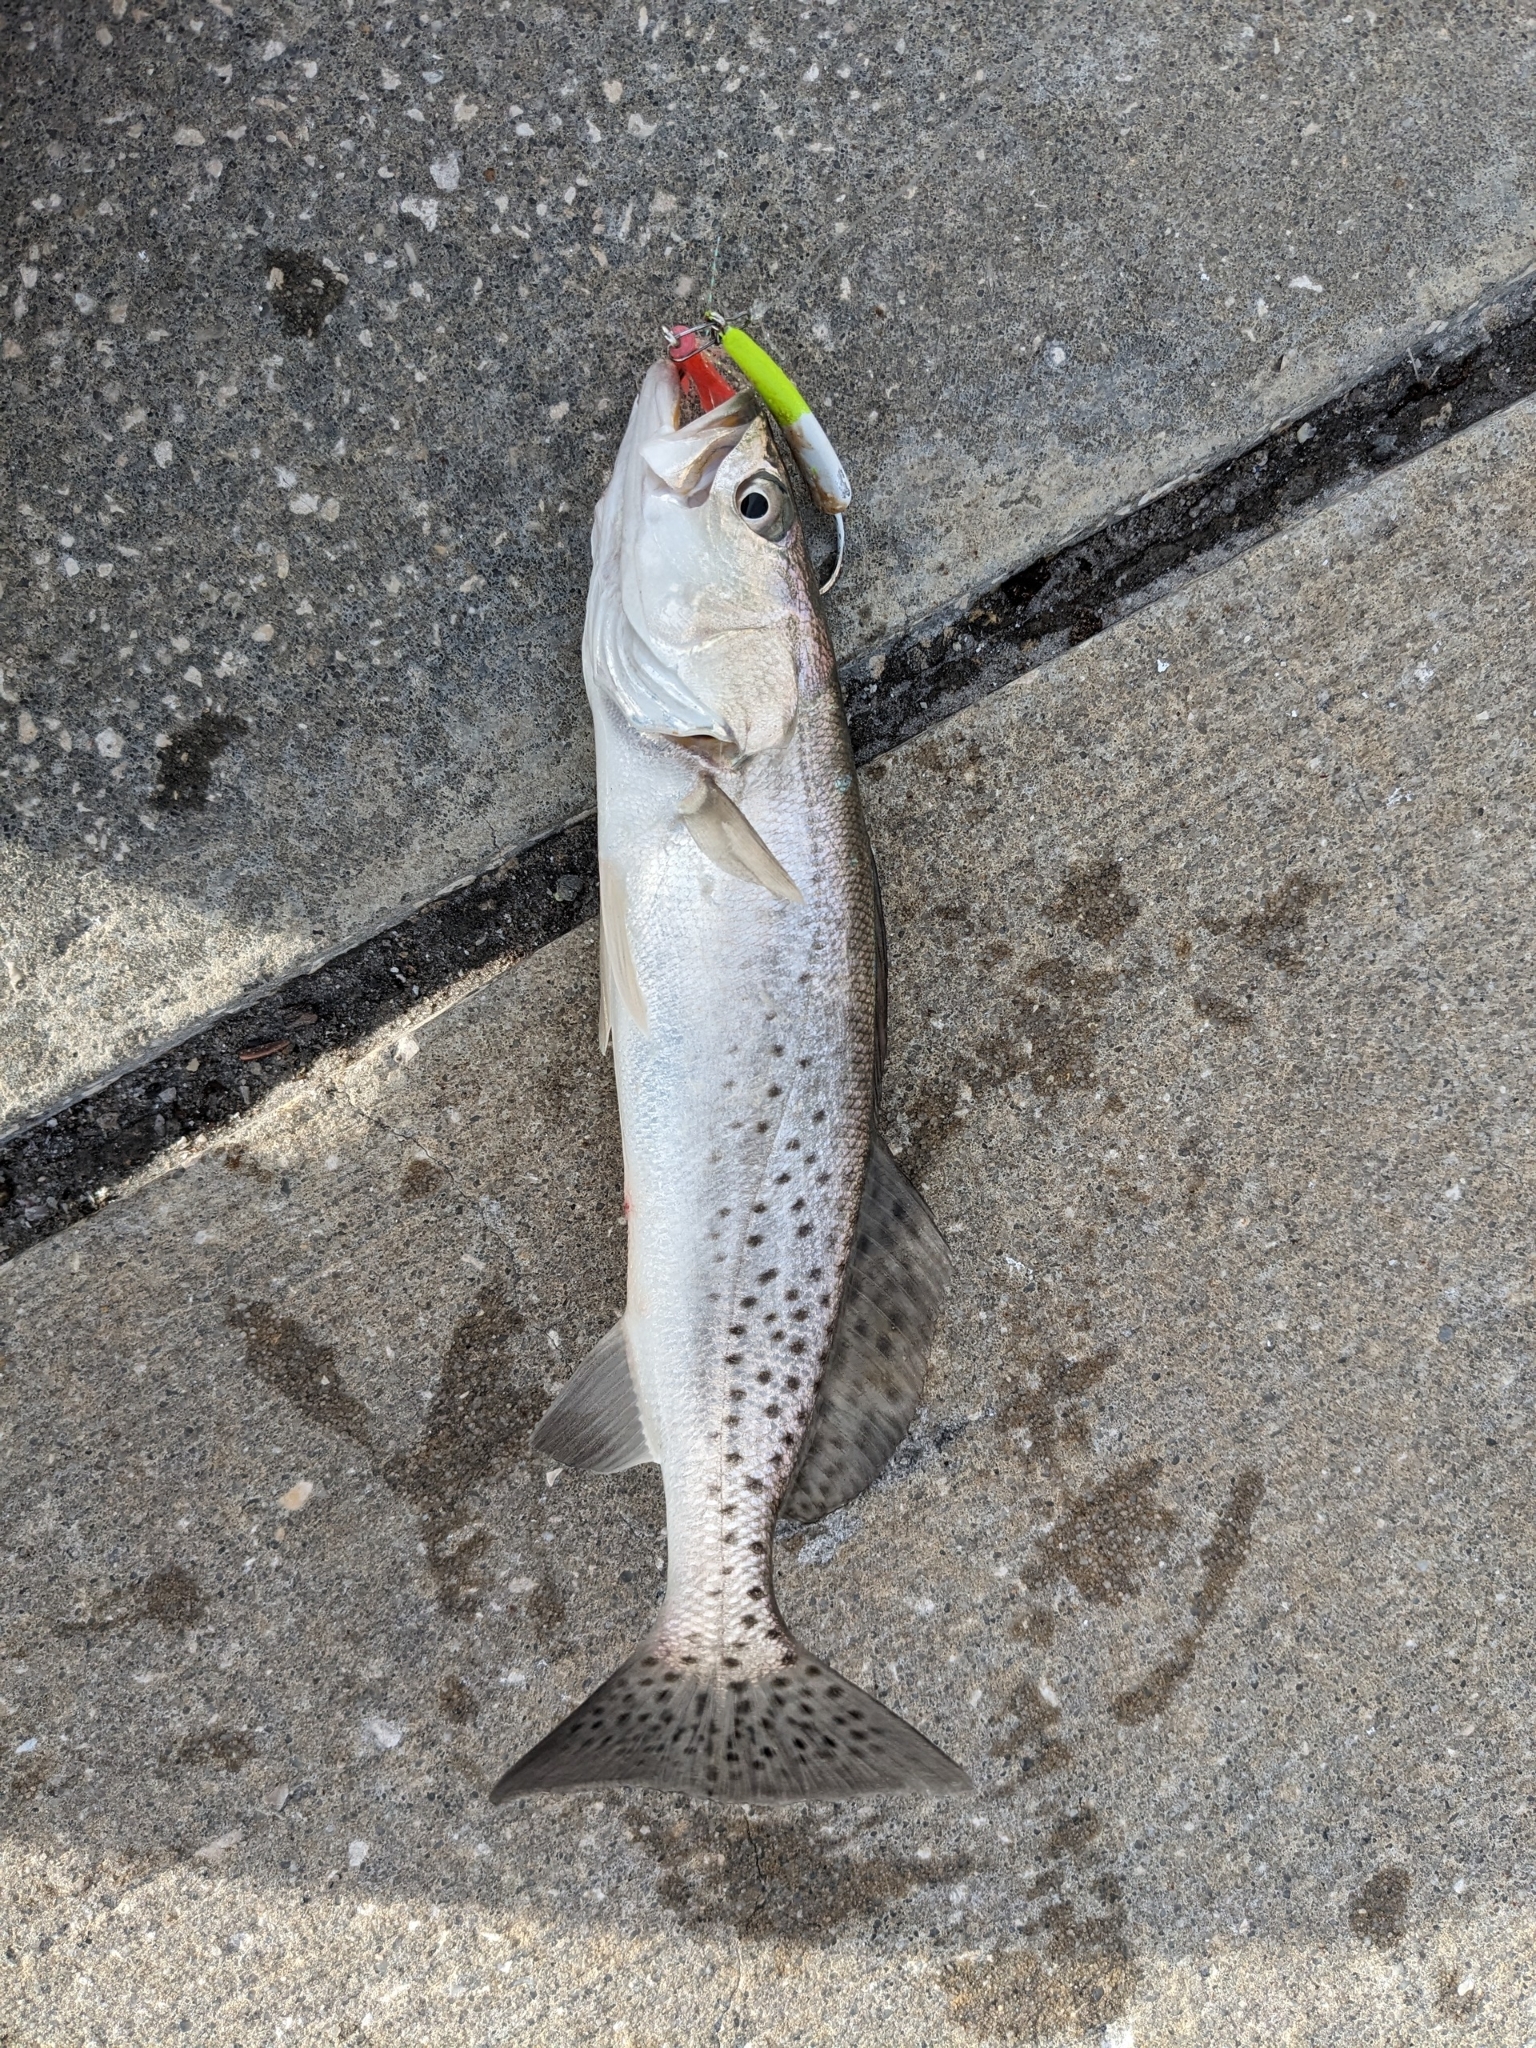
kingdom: Animalia
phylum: Chordata
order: Perciformes
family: Sciaenidae
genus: Cynoscion
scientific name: Cynoscion nebulosus
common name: Spotted seatrout
